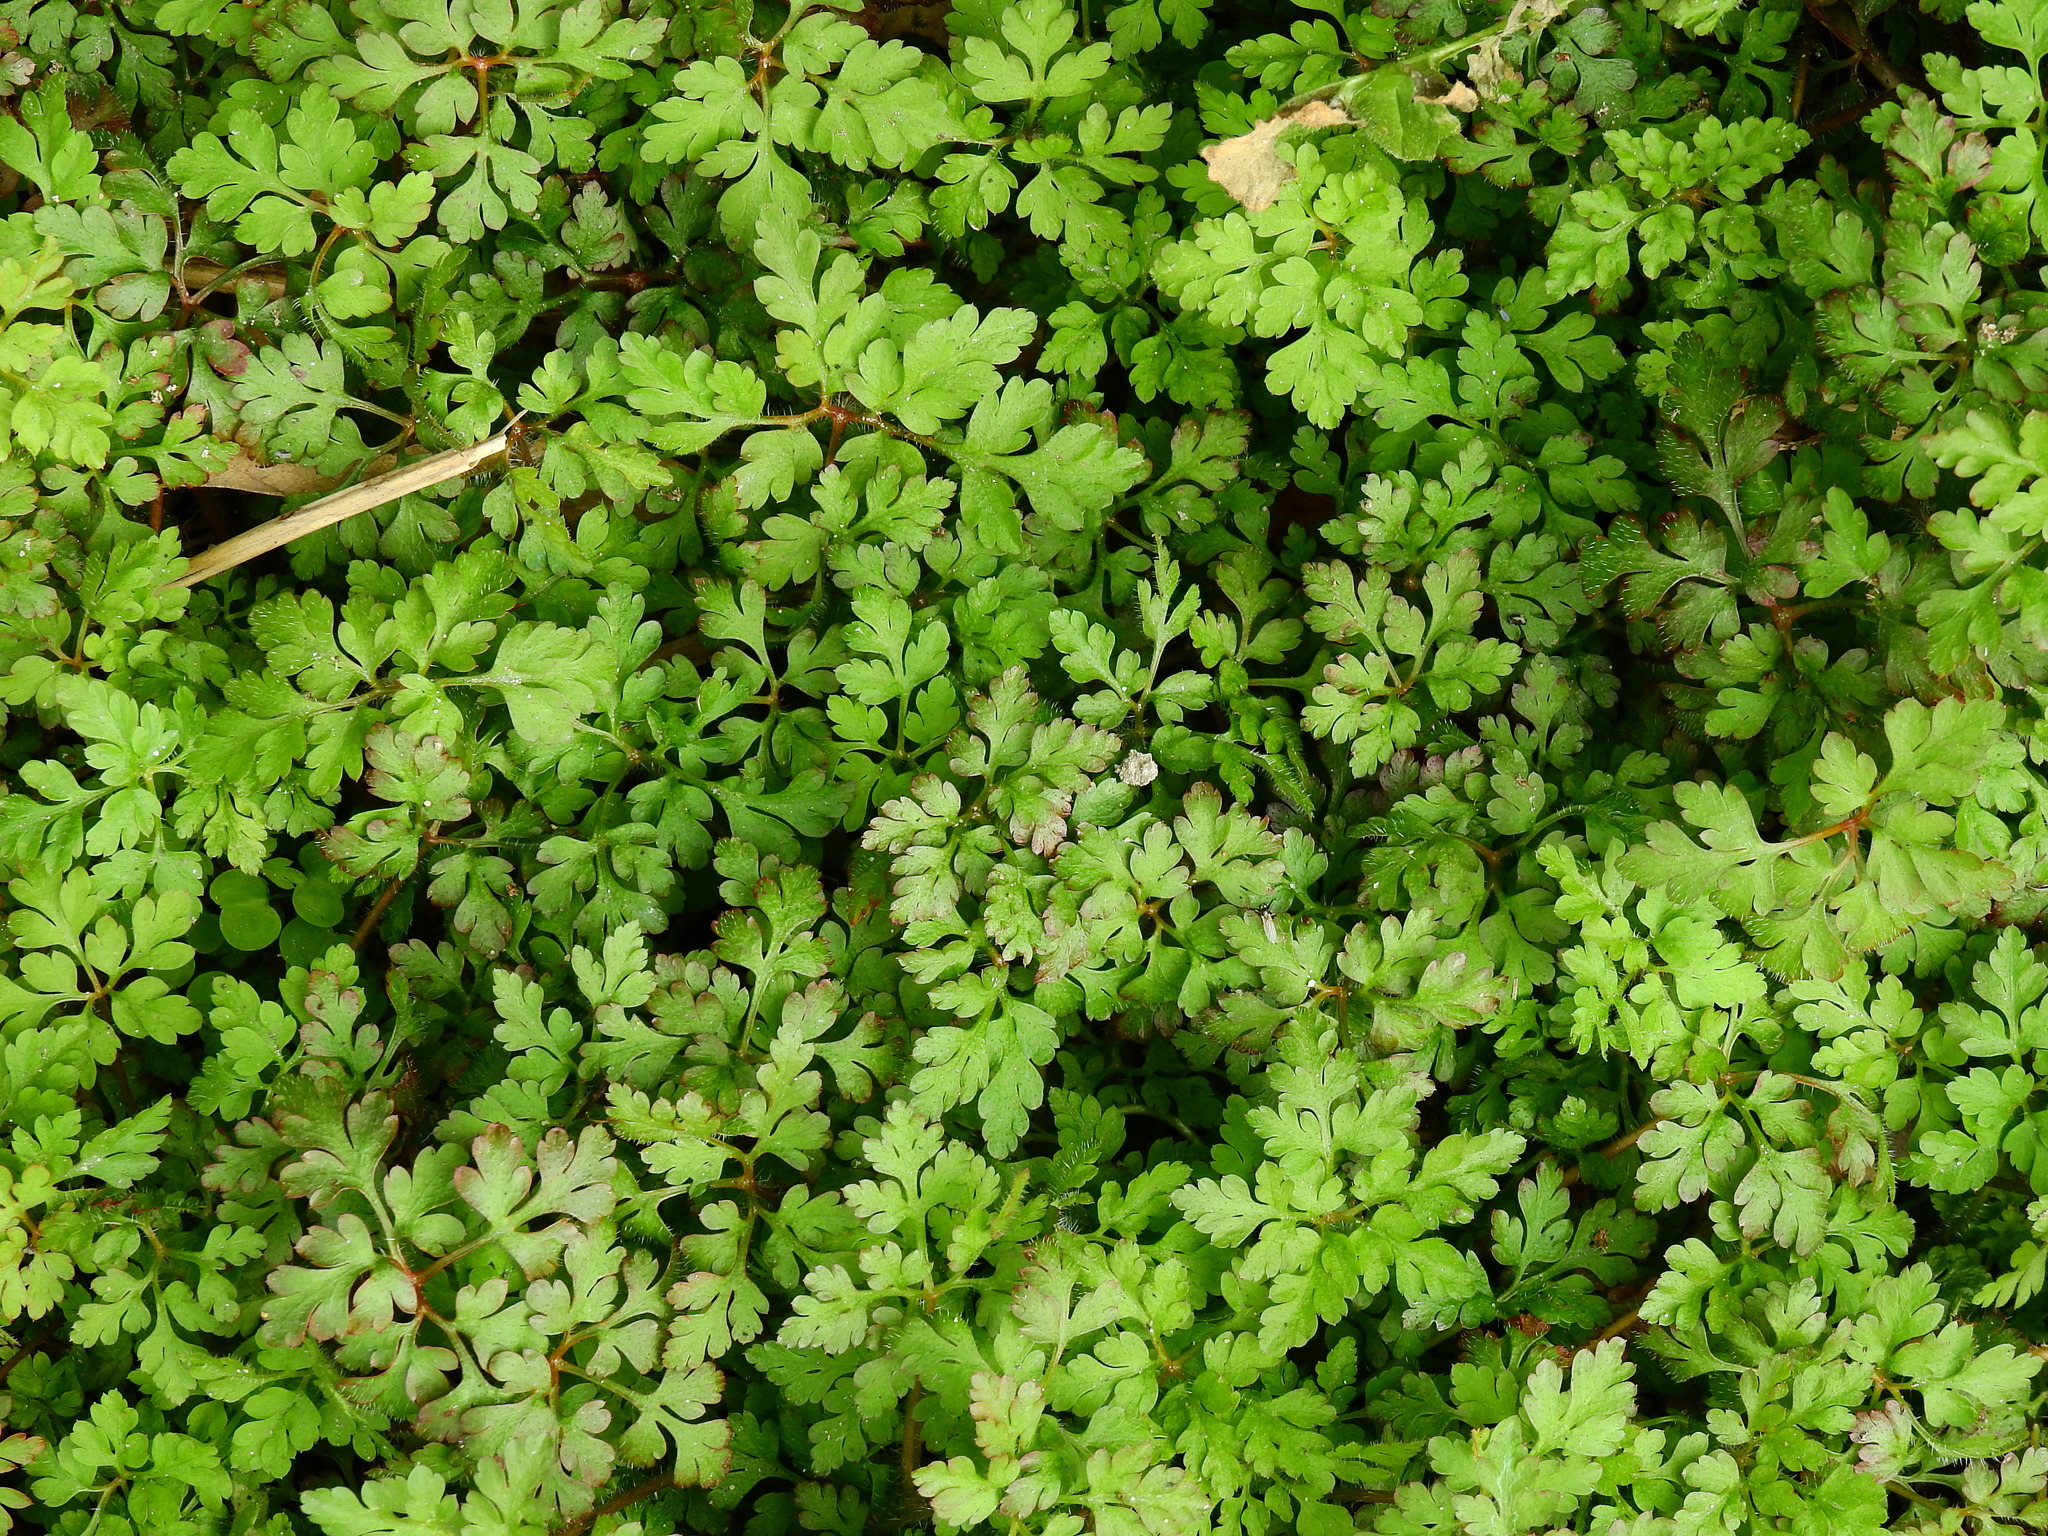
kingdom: Plantae
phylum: Tracheophyta
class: Magnoliopsida
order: Geraniales
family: Geraniaceae
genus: Geranium
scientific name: Geranium robertianum
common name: Herb-robert
